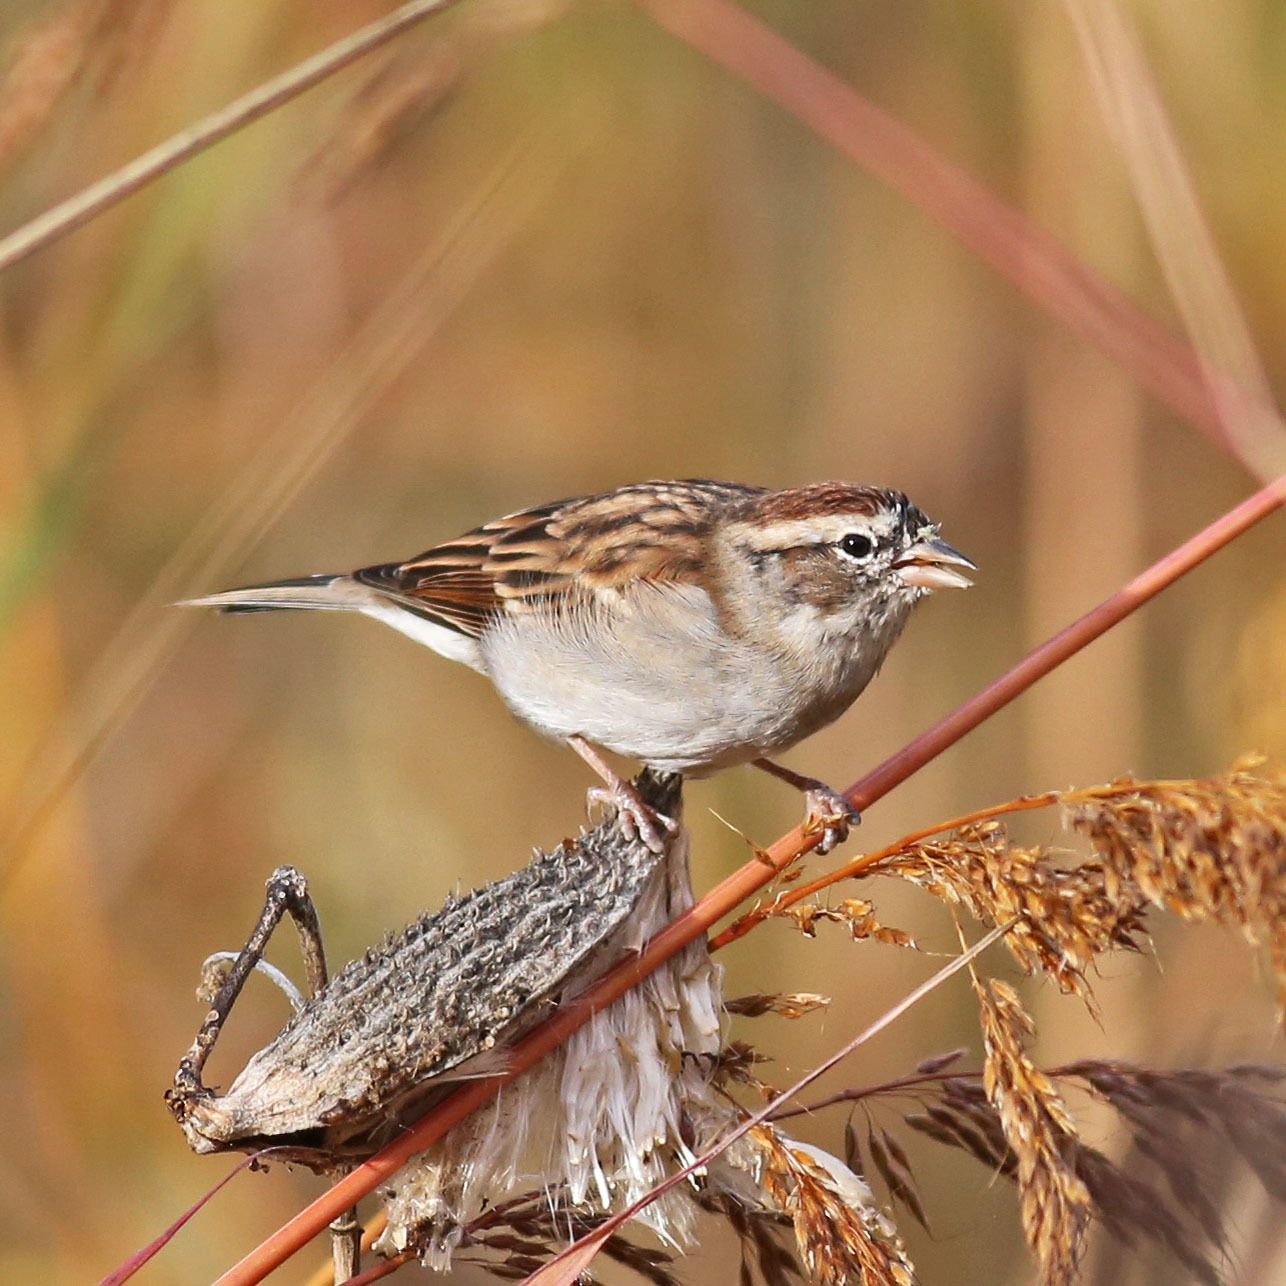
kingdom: Animalia
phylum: Chordata
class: Aves
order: Passeriformes
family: Passerellidae
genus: Spizella
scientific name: Spizella passerina
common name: Chipping sparrow
